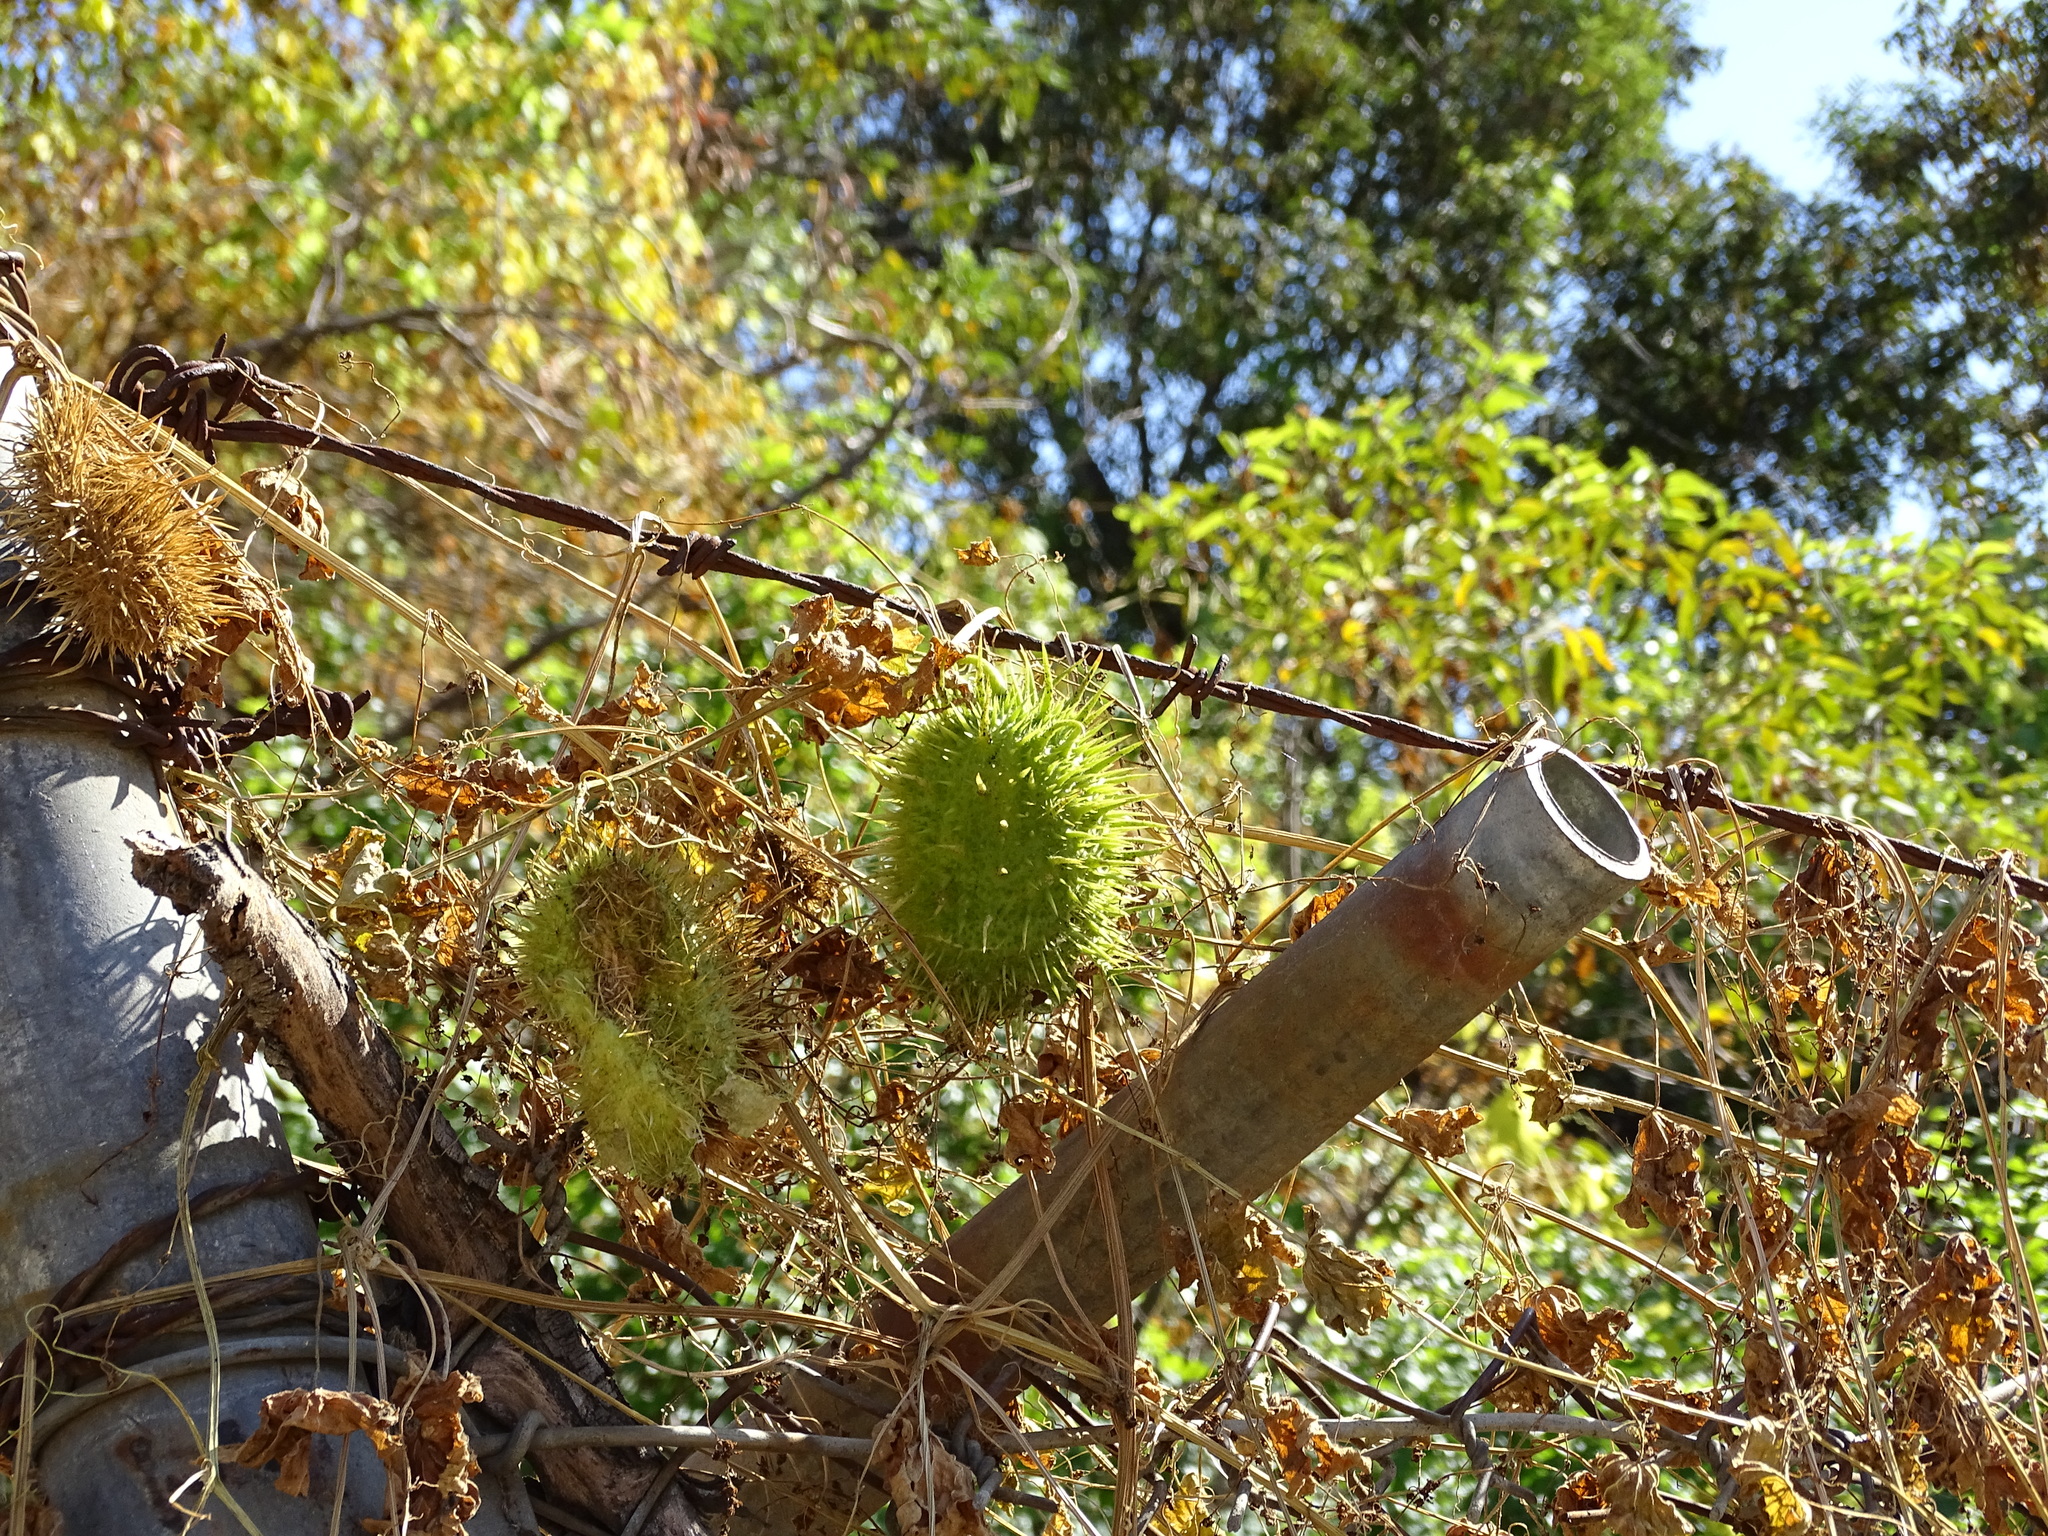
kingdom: Plantae
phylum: Tracheophyta
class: Magnoliopsida
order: Cucurbitales
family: Cucurbitaceae
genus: Marah
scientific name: Marah macrocarpa
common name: Cucamonga manroot
